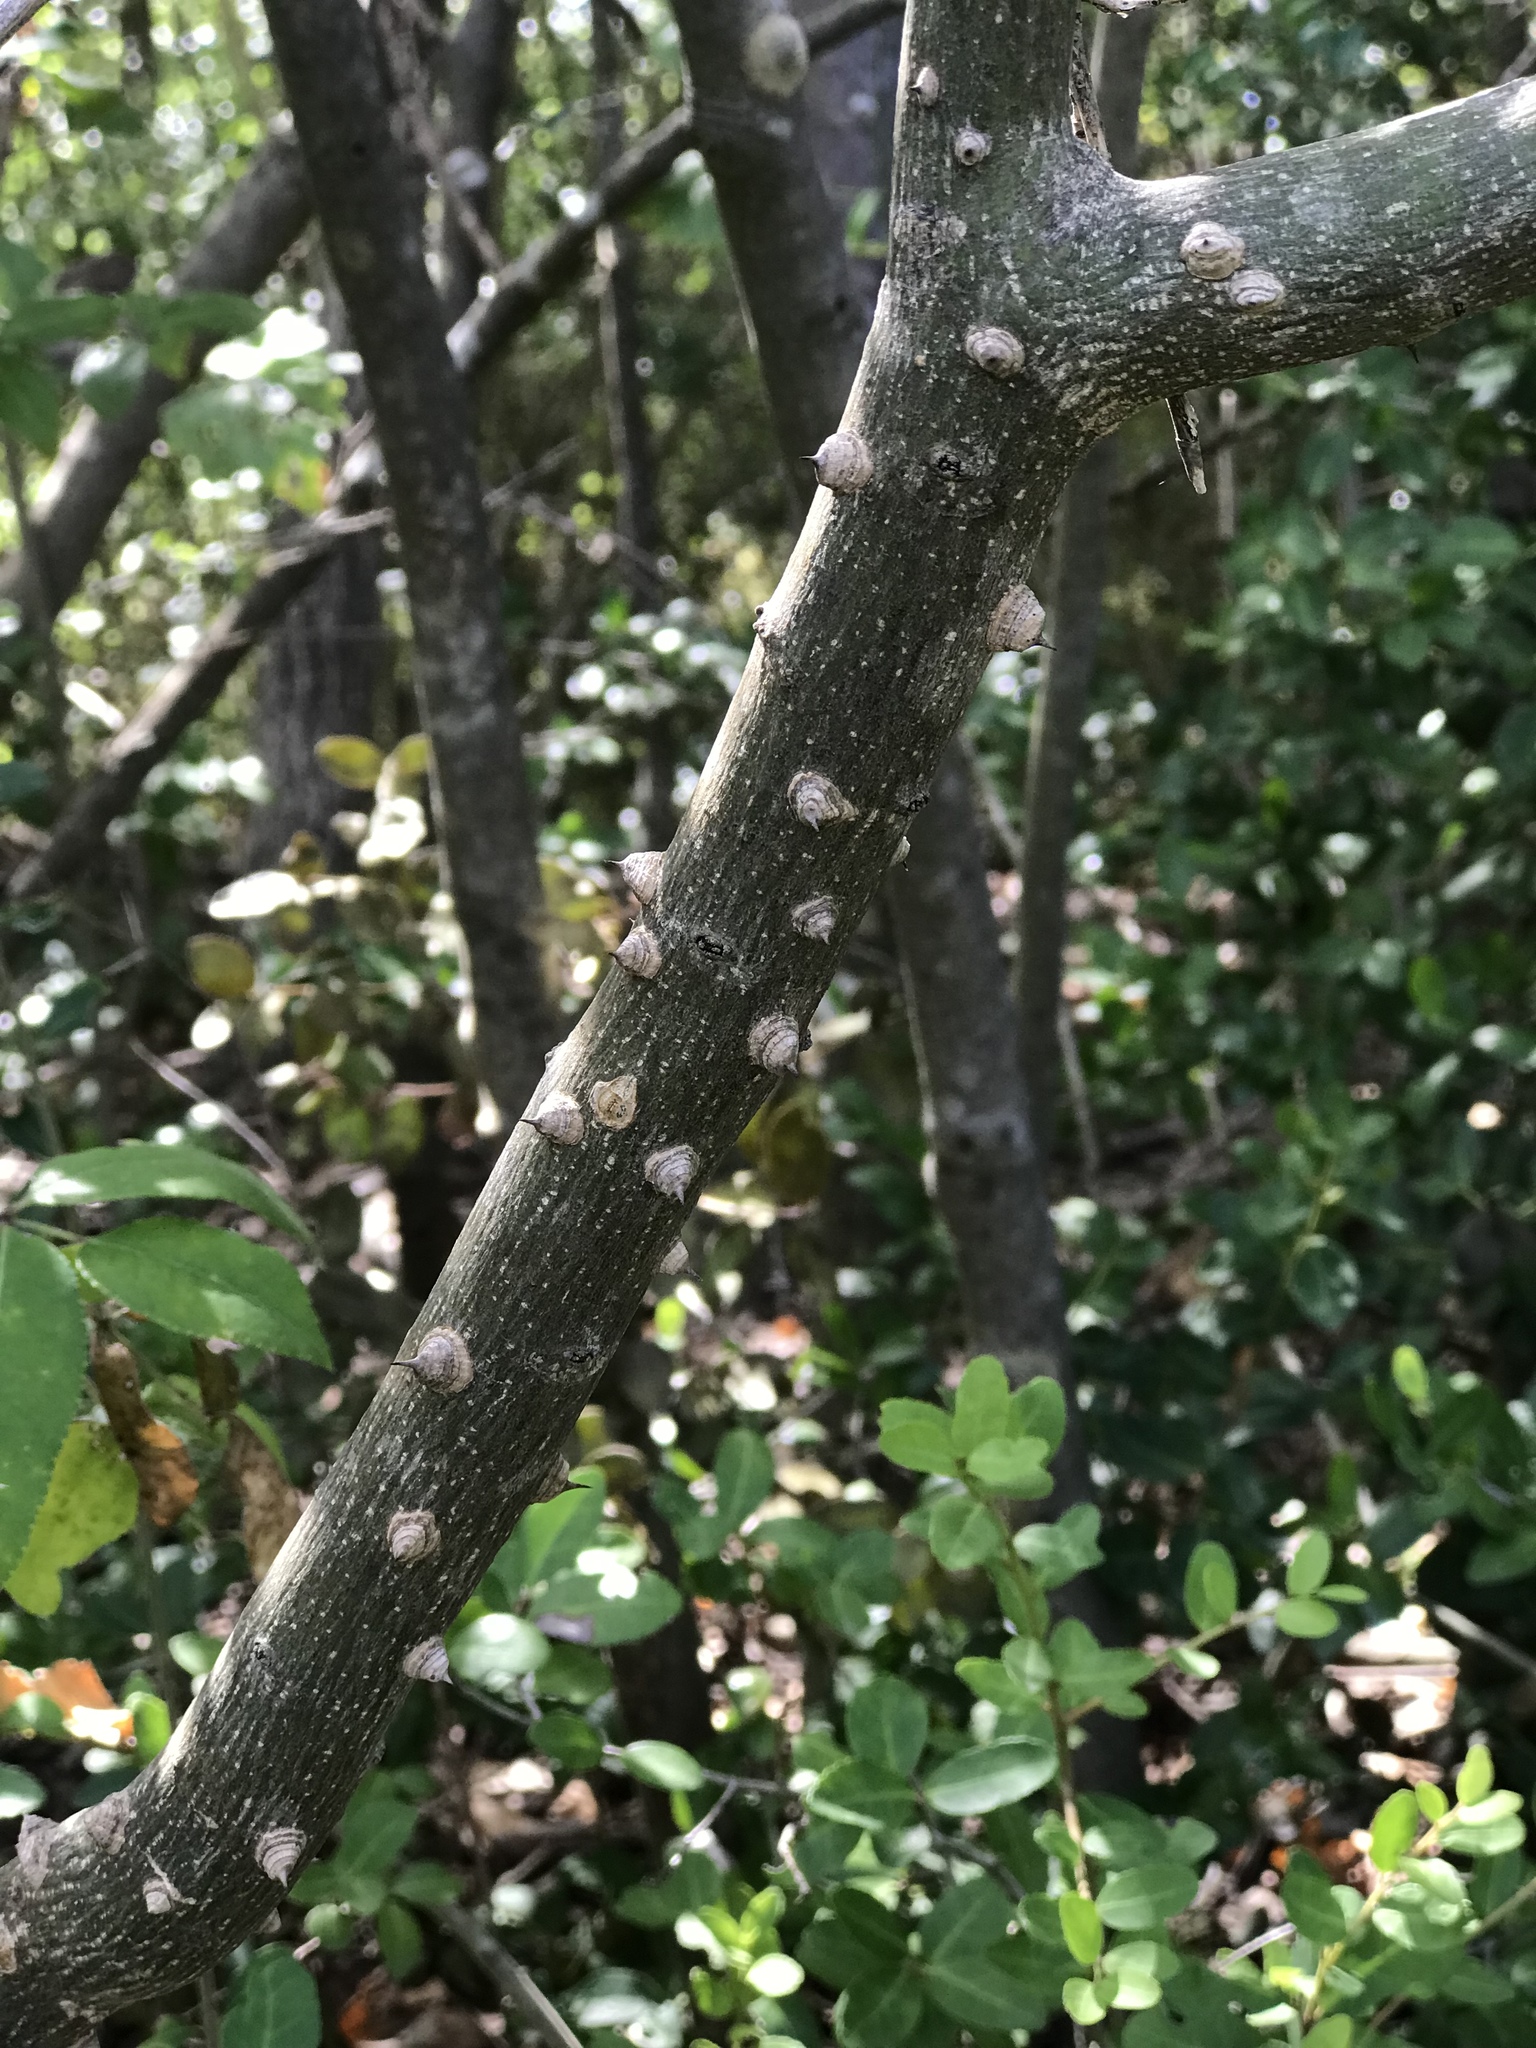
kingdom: Plantae
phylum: Tracheophyta
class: Magnoliopsida
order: Sapindales
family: Rutaceae
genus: Zanthoxylum
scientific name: Zanthoxylum clava-herculis
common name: Hercules'-club
